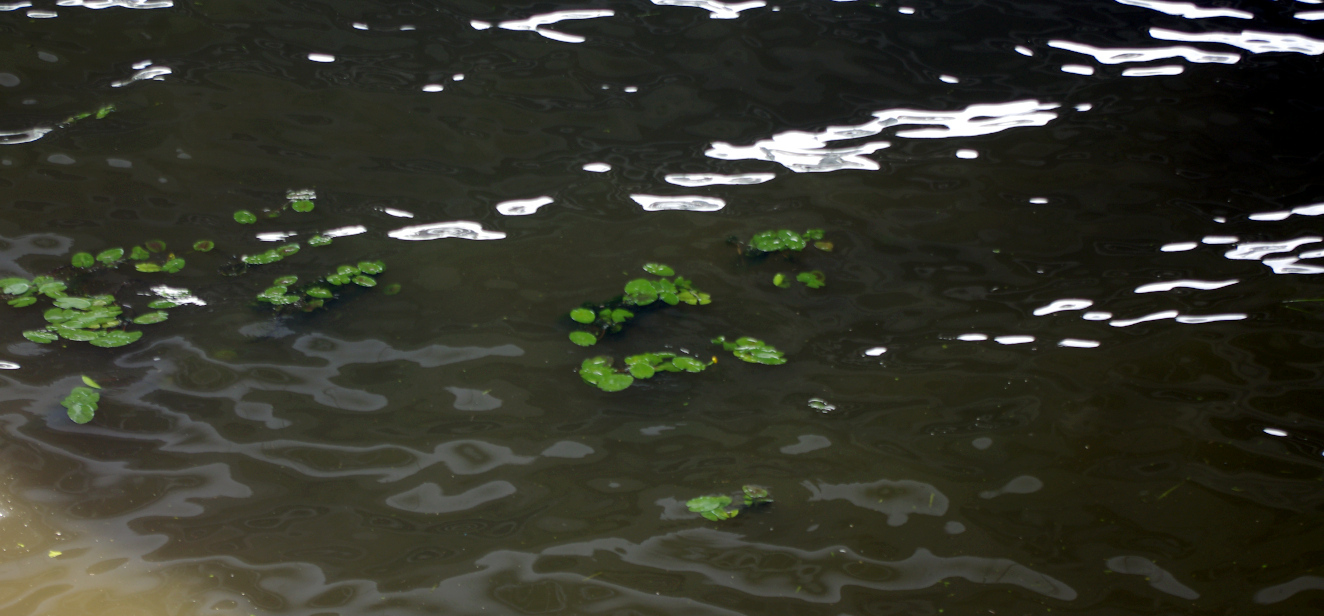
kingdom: Plantae
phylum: Tracheophyta
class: Magnoliopsida
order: Nymphaeales
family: Nymphaeaceae
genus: Nuphar
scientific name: Nuphar lutea
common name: Yellow water-lily
